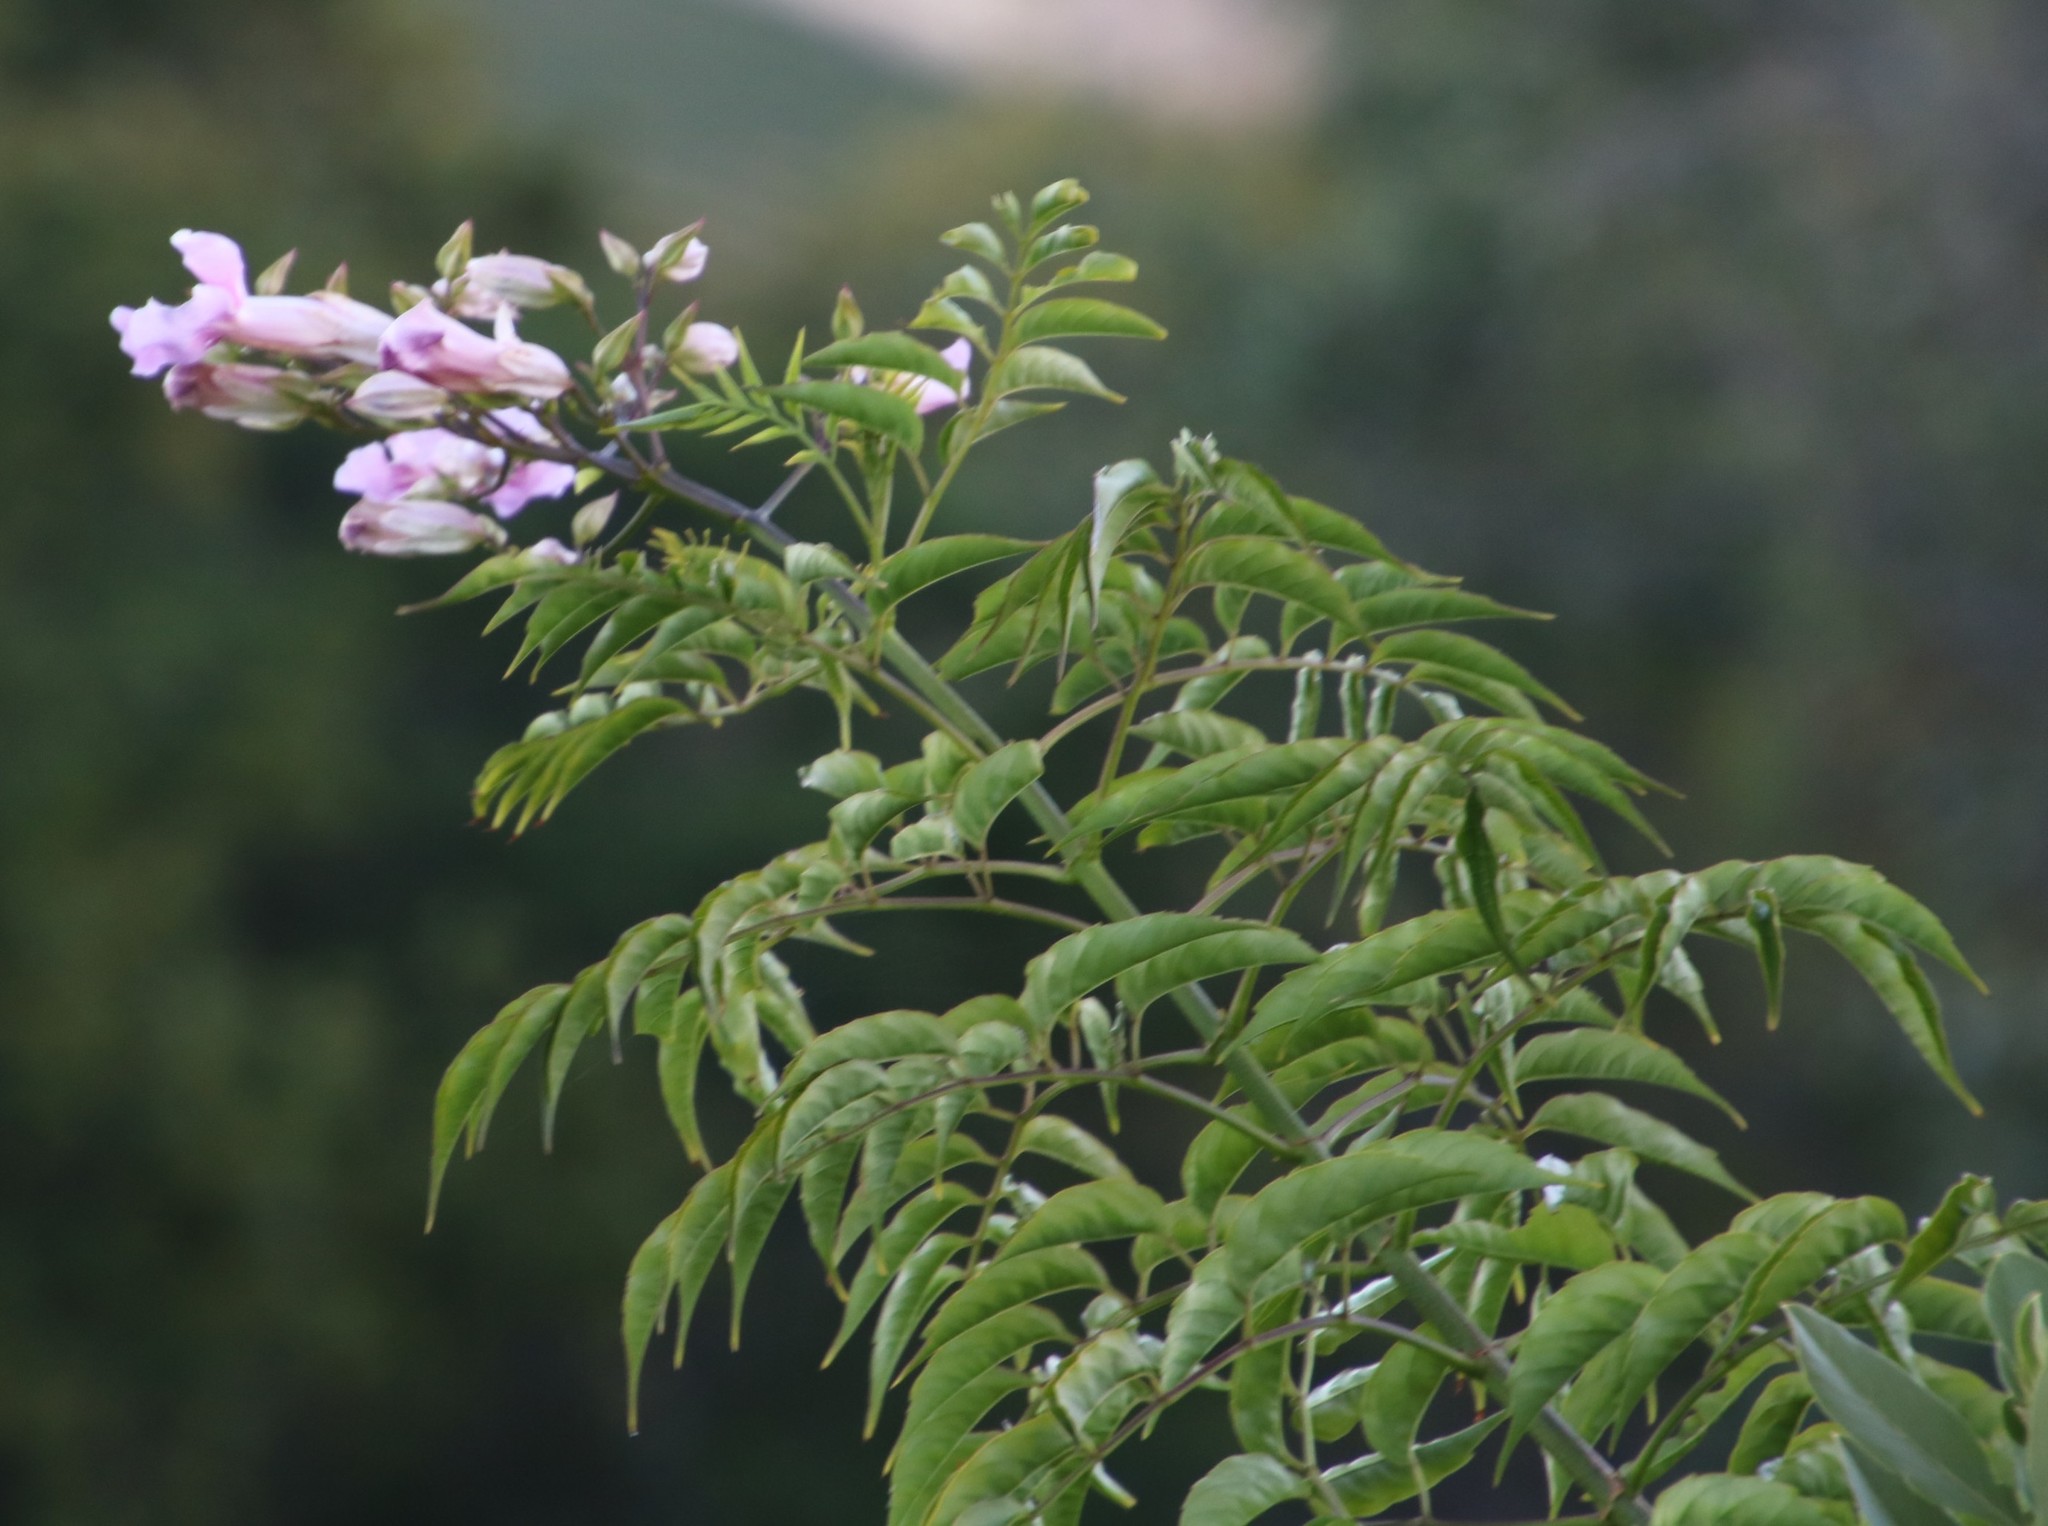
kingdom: Plantae
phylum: Tracheophyta
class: Magnoliopsida
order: Lamiales
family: Bignoniaceae
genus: Podranea
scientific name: Podranea ricasoliana
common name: Zimbabwe creeper
